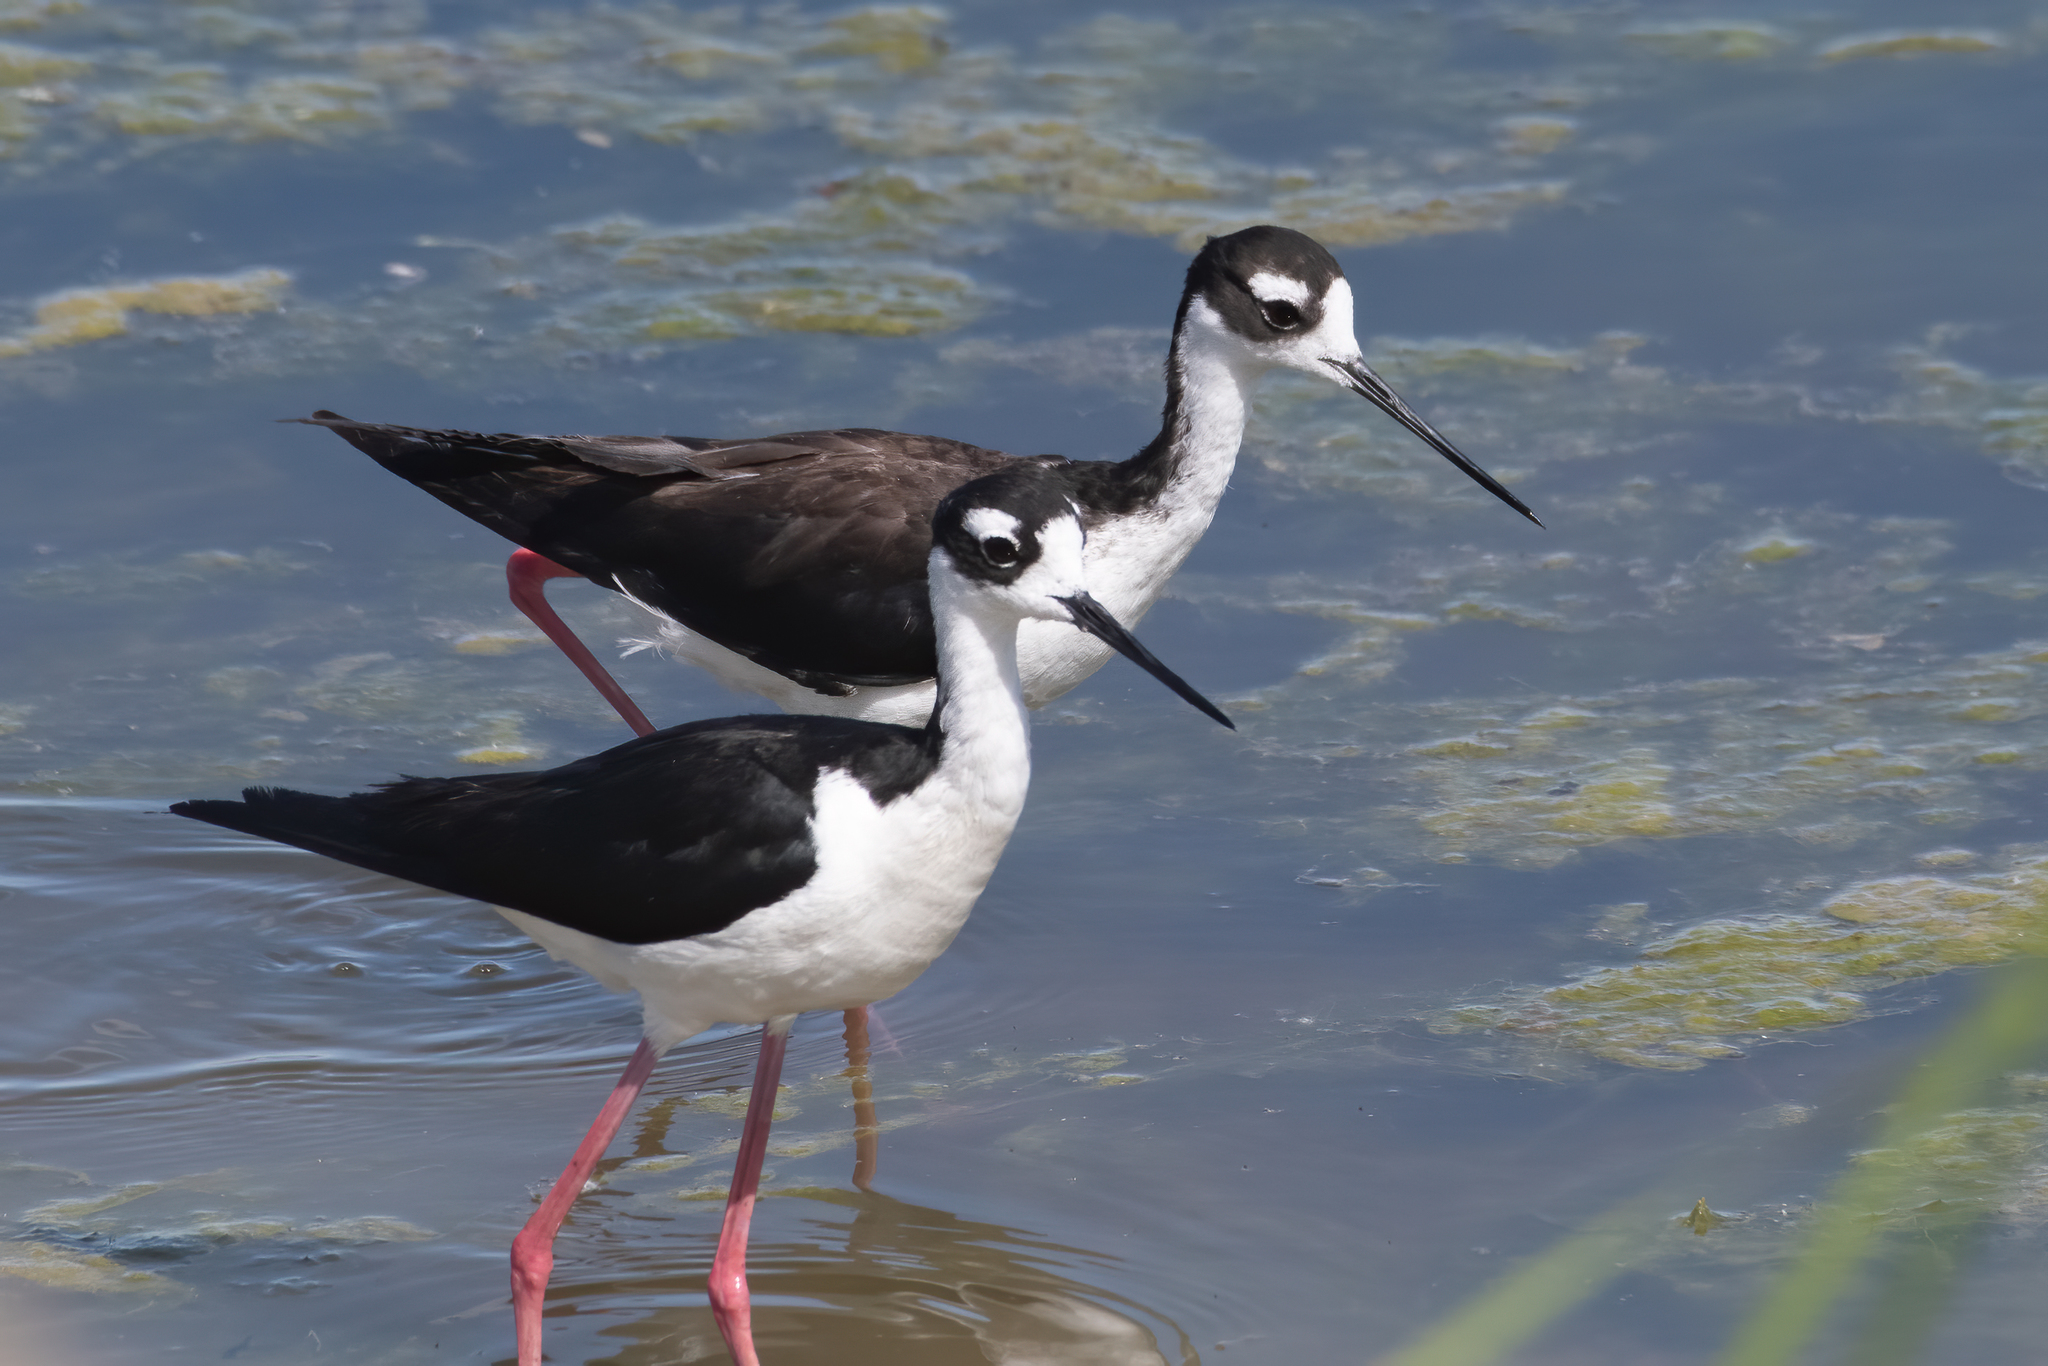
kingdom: Animalia
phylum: Chordata
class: Aves
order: Charadriiformes
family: Recurvirostridae
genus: Himantopus
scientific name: Himantopus mexicanus
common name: Black-necked stilt
